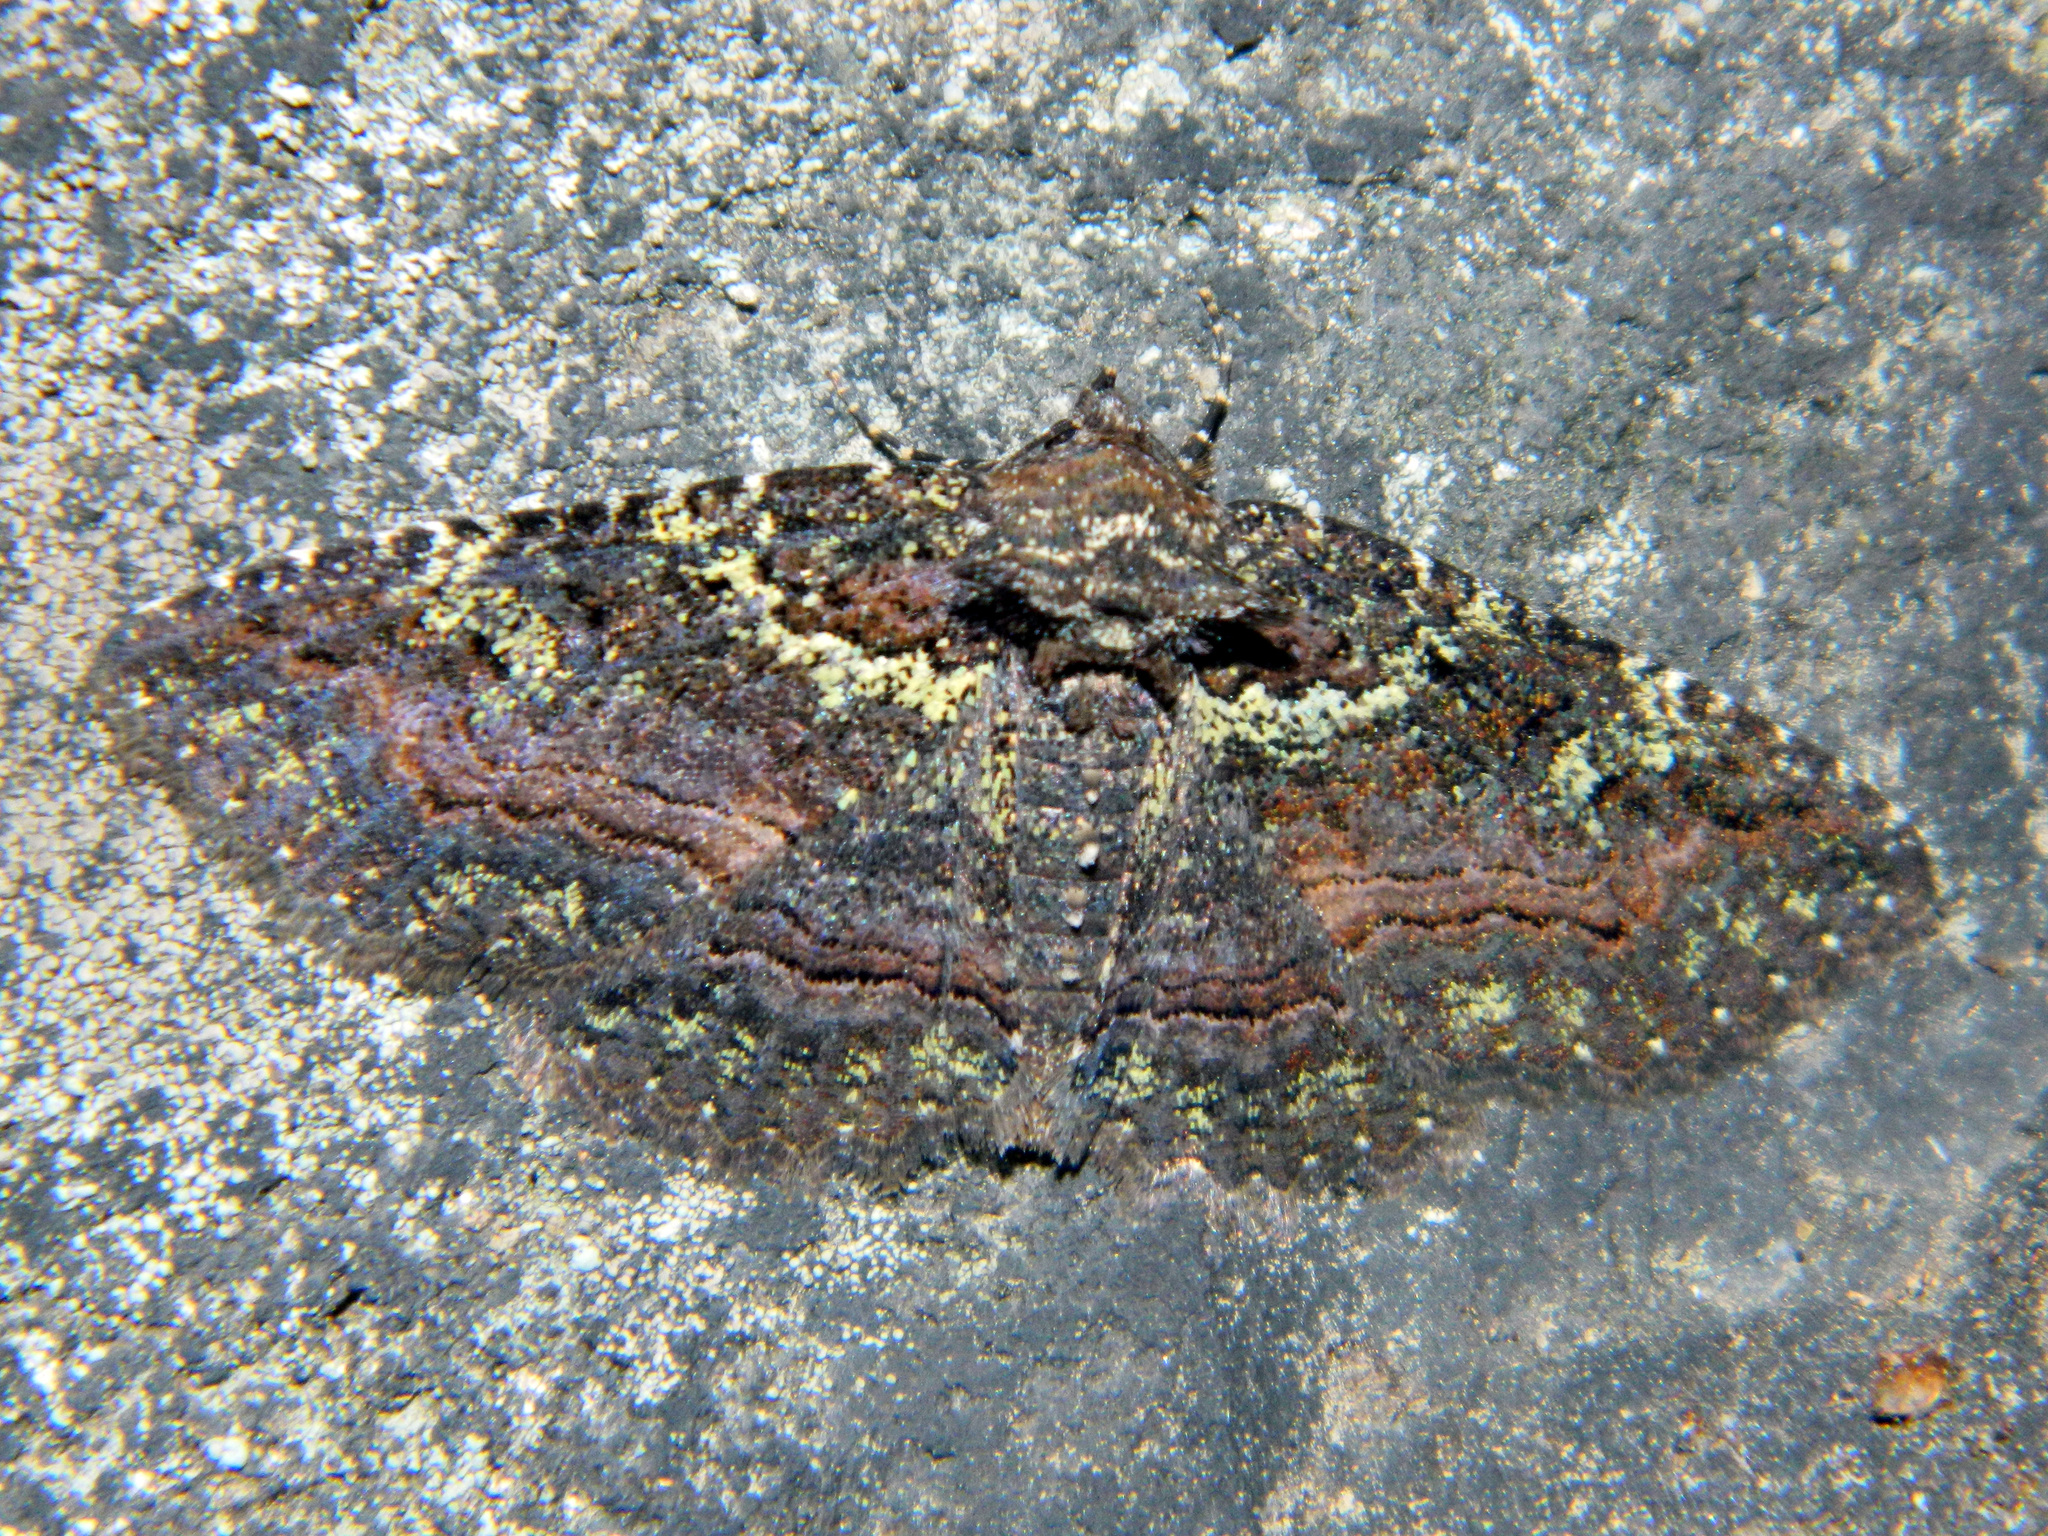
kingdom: Animalia
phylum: Arthropoda
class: Insecta
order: Lepidoptera
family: Erebidae
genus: Zale
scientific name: Zale aeruginosa
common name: Green-dusted zale moth
